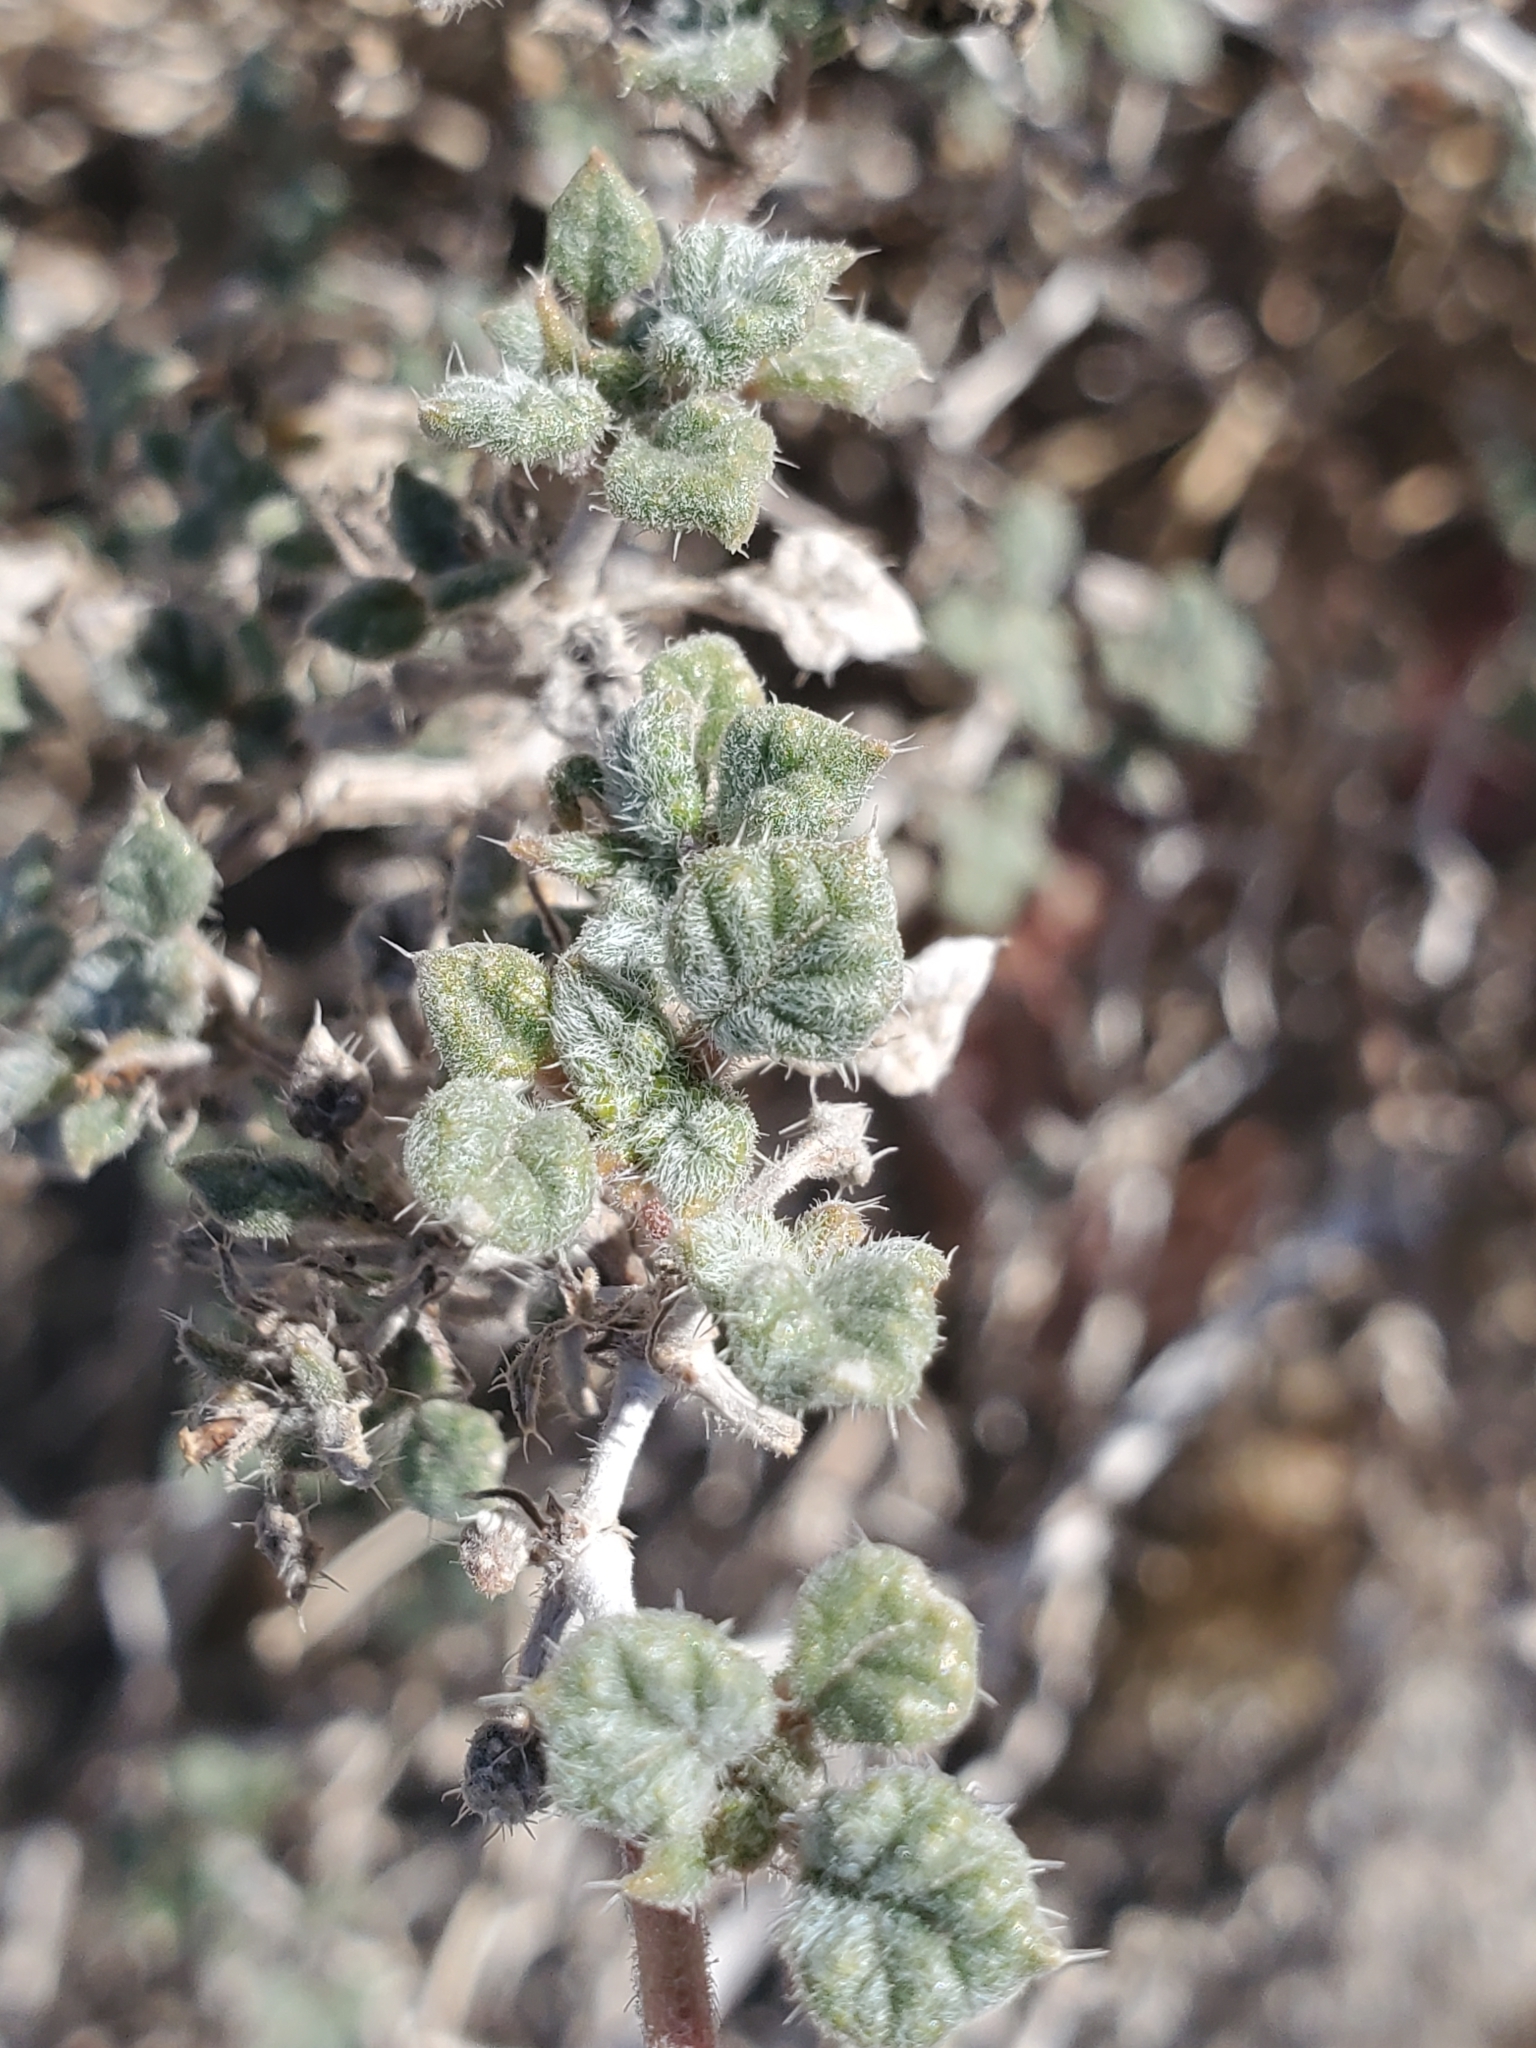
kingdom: Plantae
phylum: Tracheophyta
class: Magnoliopsida
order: Boraginales
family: Ehretiaceae
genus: Tiquilia
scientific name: Tiquilia palmeri
